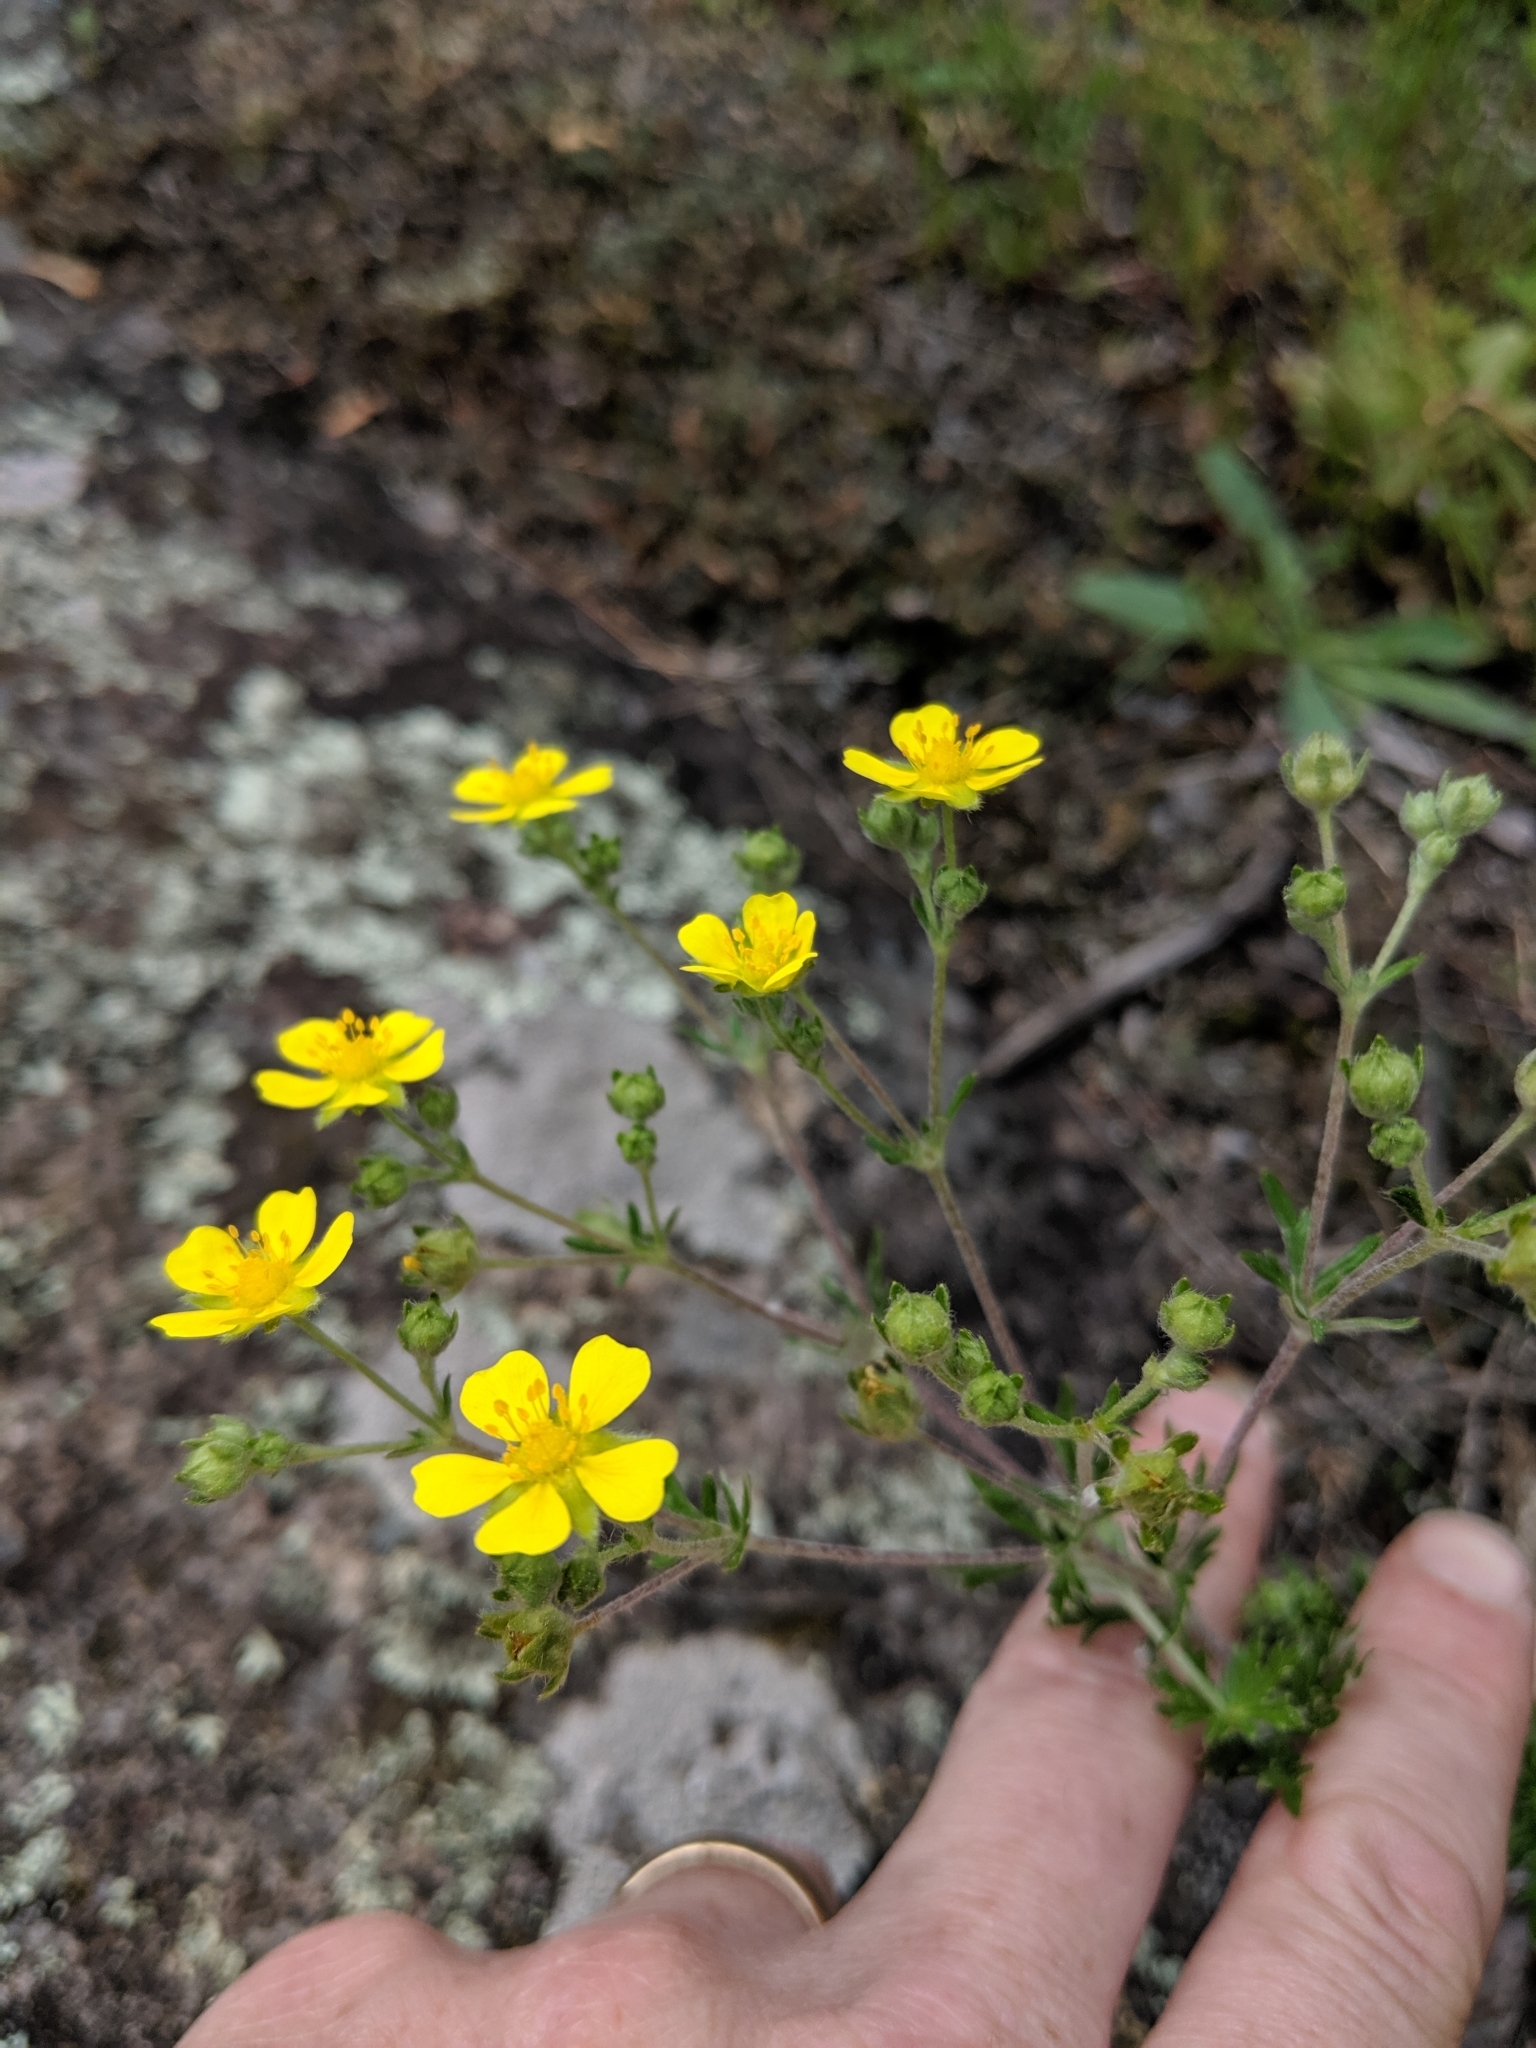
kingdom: Plantae
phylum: Tracheophyta
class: Magnoliopsida
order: Rosales
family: Rosaceae
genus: Potentilla
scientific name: Potentilla argentea
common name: Hoary cinquefoil
